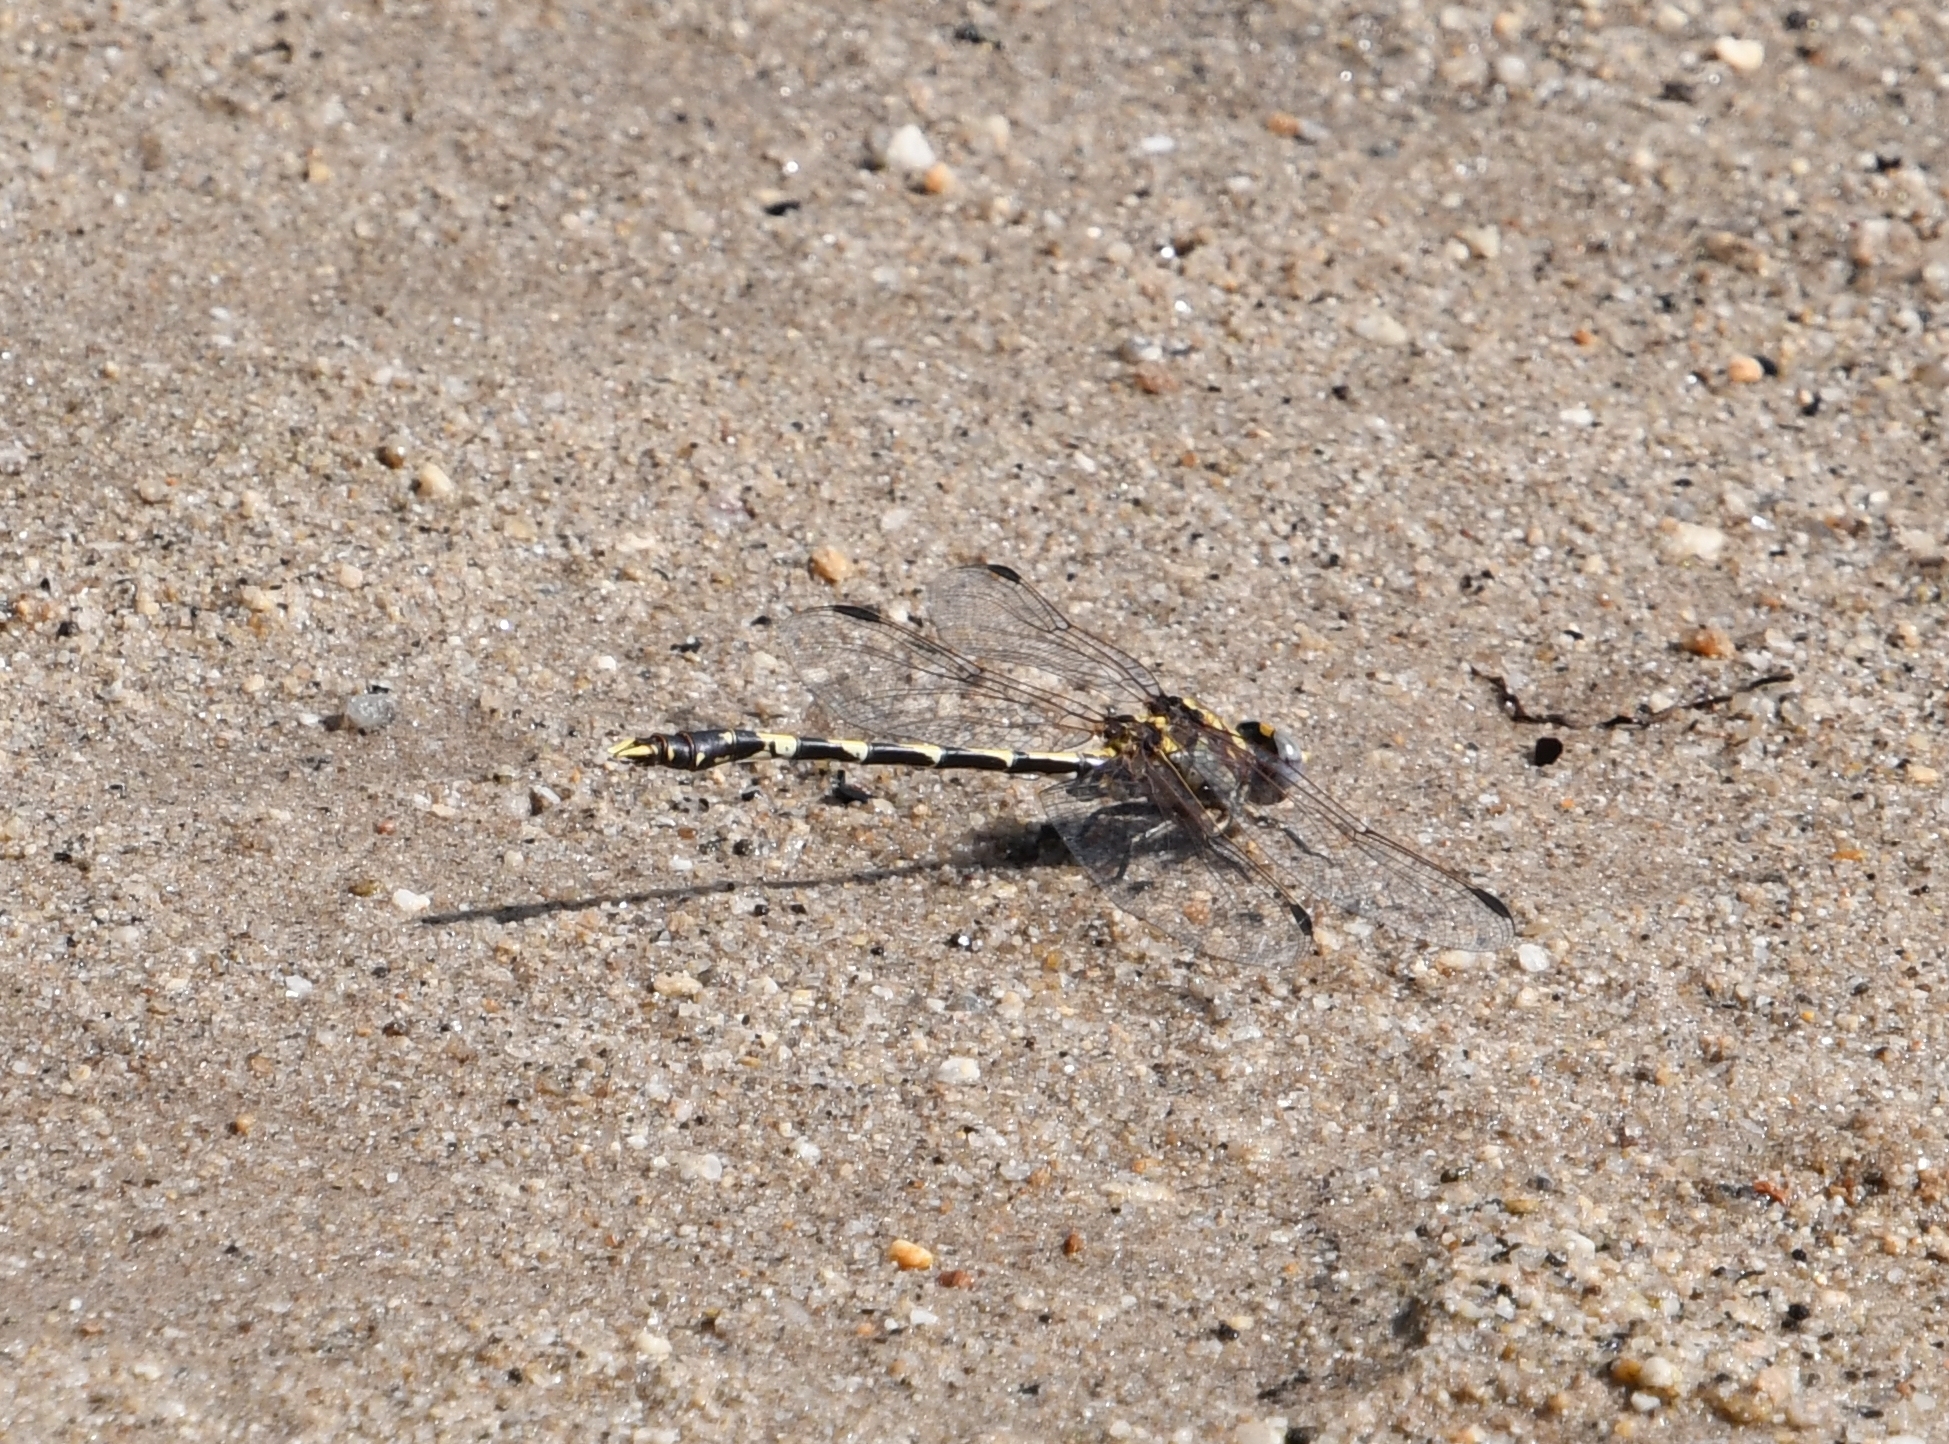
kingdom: Animalia
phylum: Arthropoda
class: Insecta
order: Odonata
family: Gomphidae
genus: Progomphus
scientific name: Progomphus borealis
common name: Gray sanddragon
